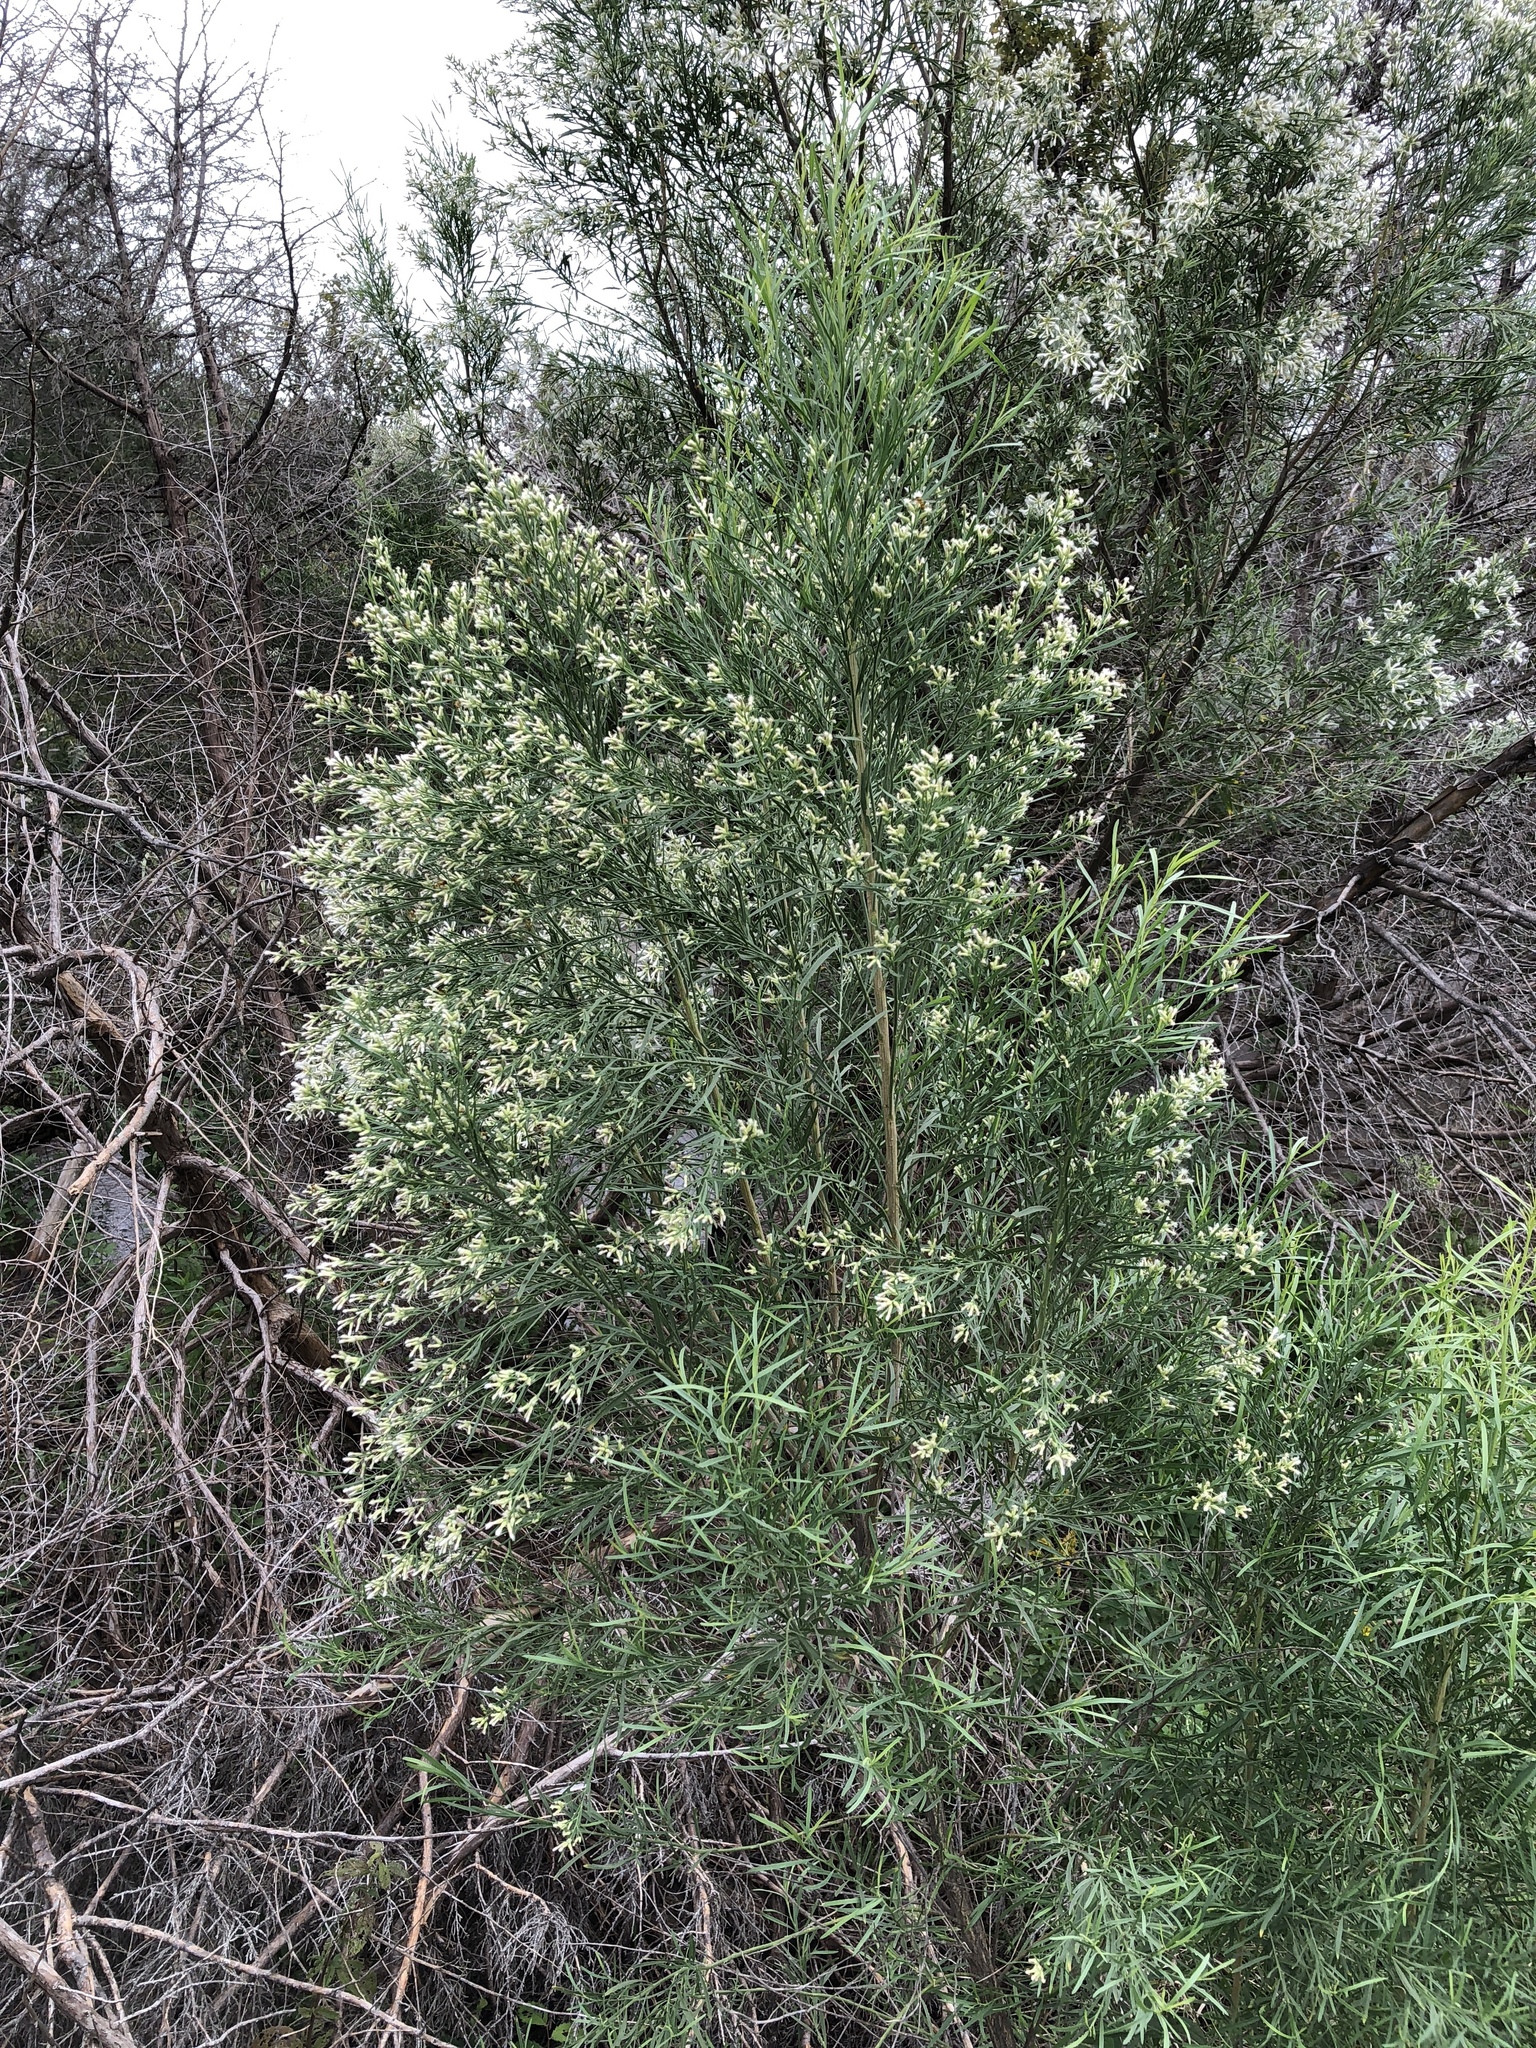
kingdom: Plantae
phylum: Tracheophyta
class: Magnoliopsida
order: Asterales
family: Asteraceae
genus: Baccharis
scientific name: Baccharis neglecta
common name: Roosevelt-weed
